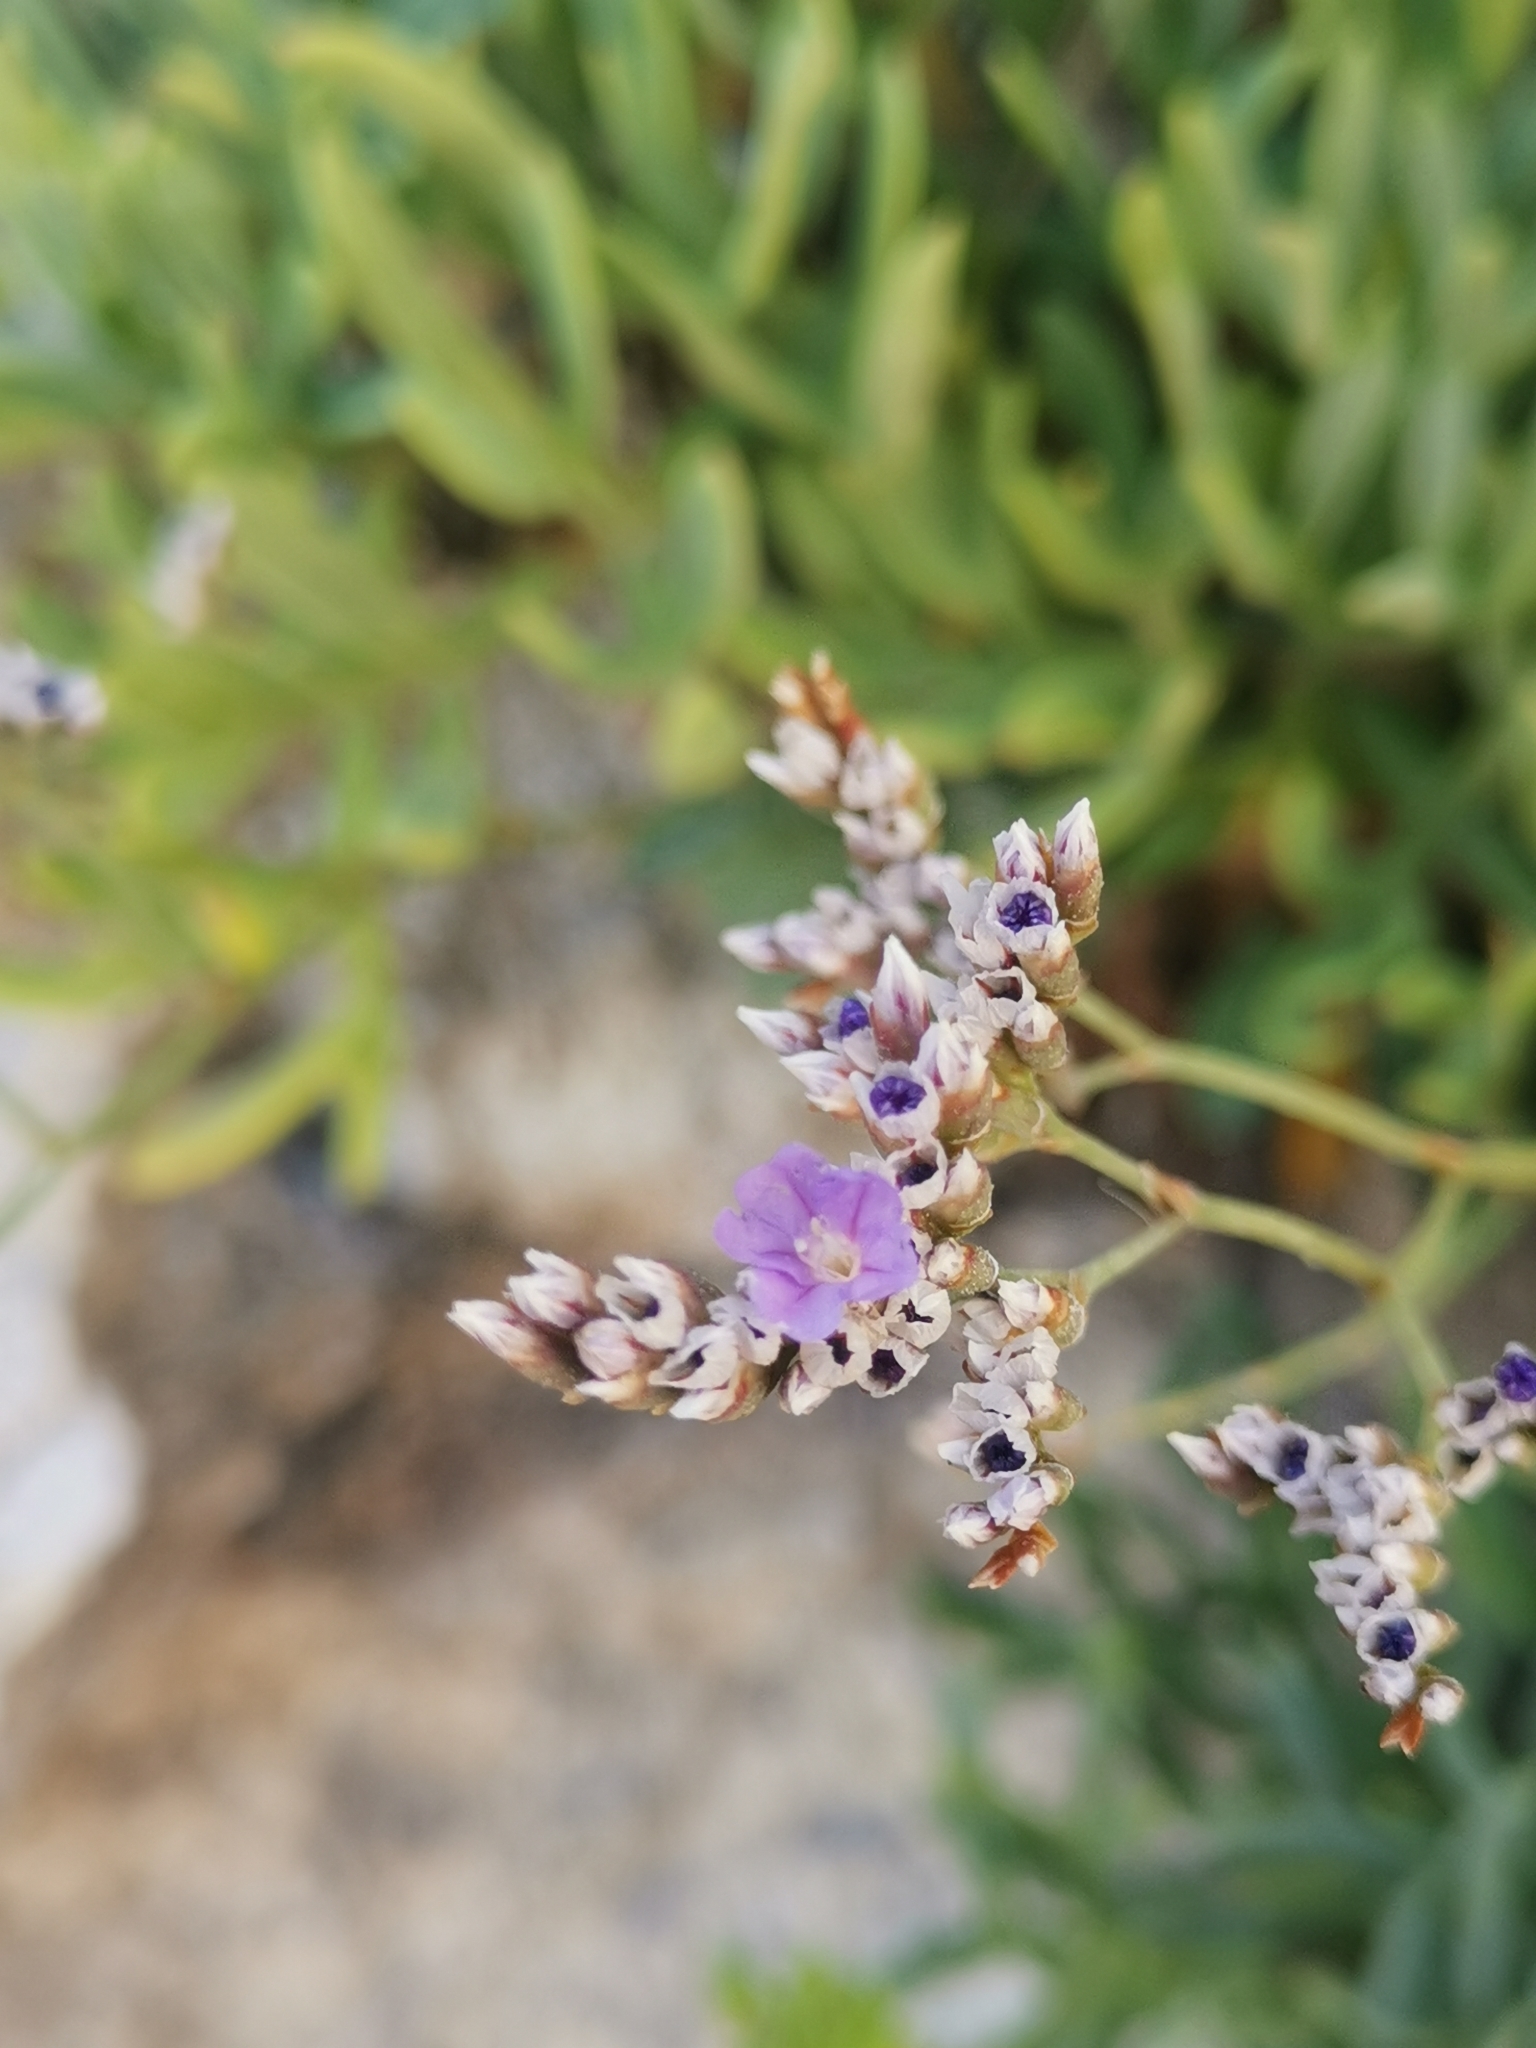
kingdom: Plantae
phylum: Tracheophyta
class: Magnoliopsida
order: Caryophyllales
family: Plumbaginaceae
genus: Limonium
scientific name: Limonium vulgare
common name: Common sea-lavender
